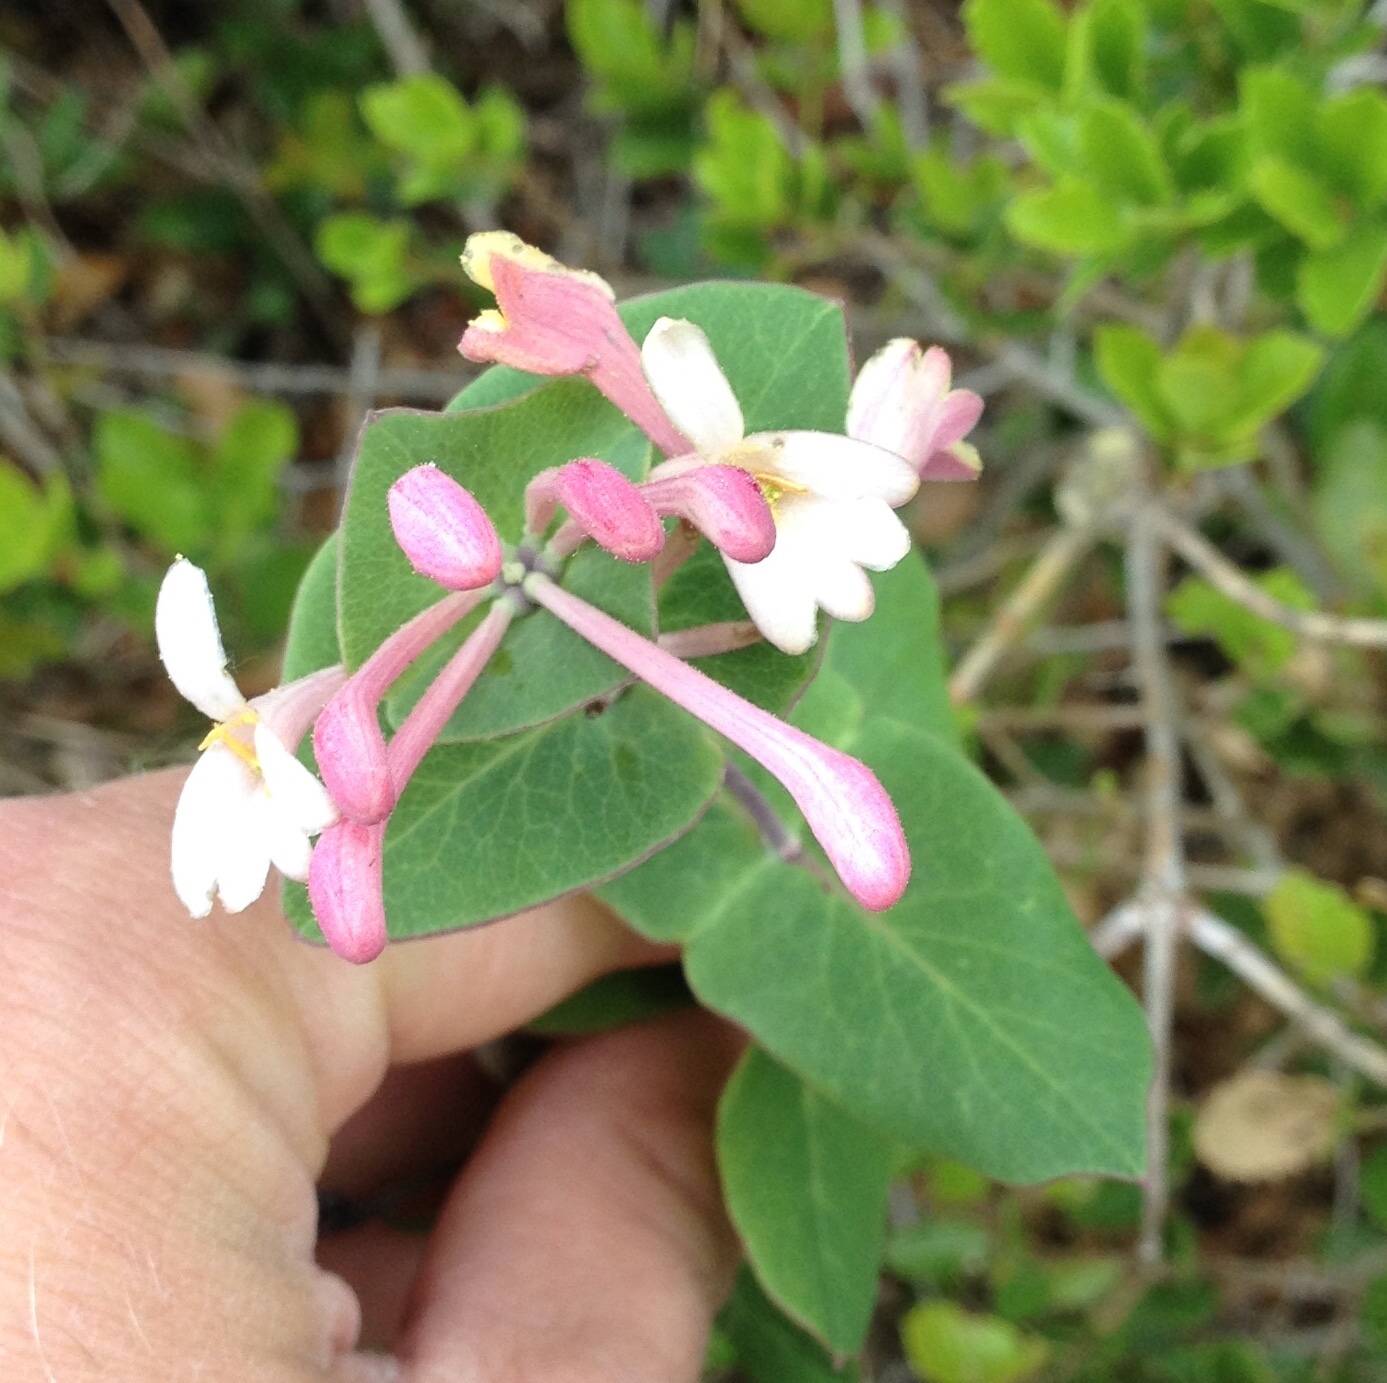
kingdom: Plantae
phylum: Tracheophyta
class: Magnoliopsida
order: Dipsacales
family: Caprifoliaceae
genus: Lonicera
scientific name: Lonicera implexa
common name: Minorca honeysuckle
